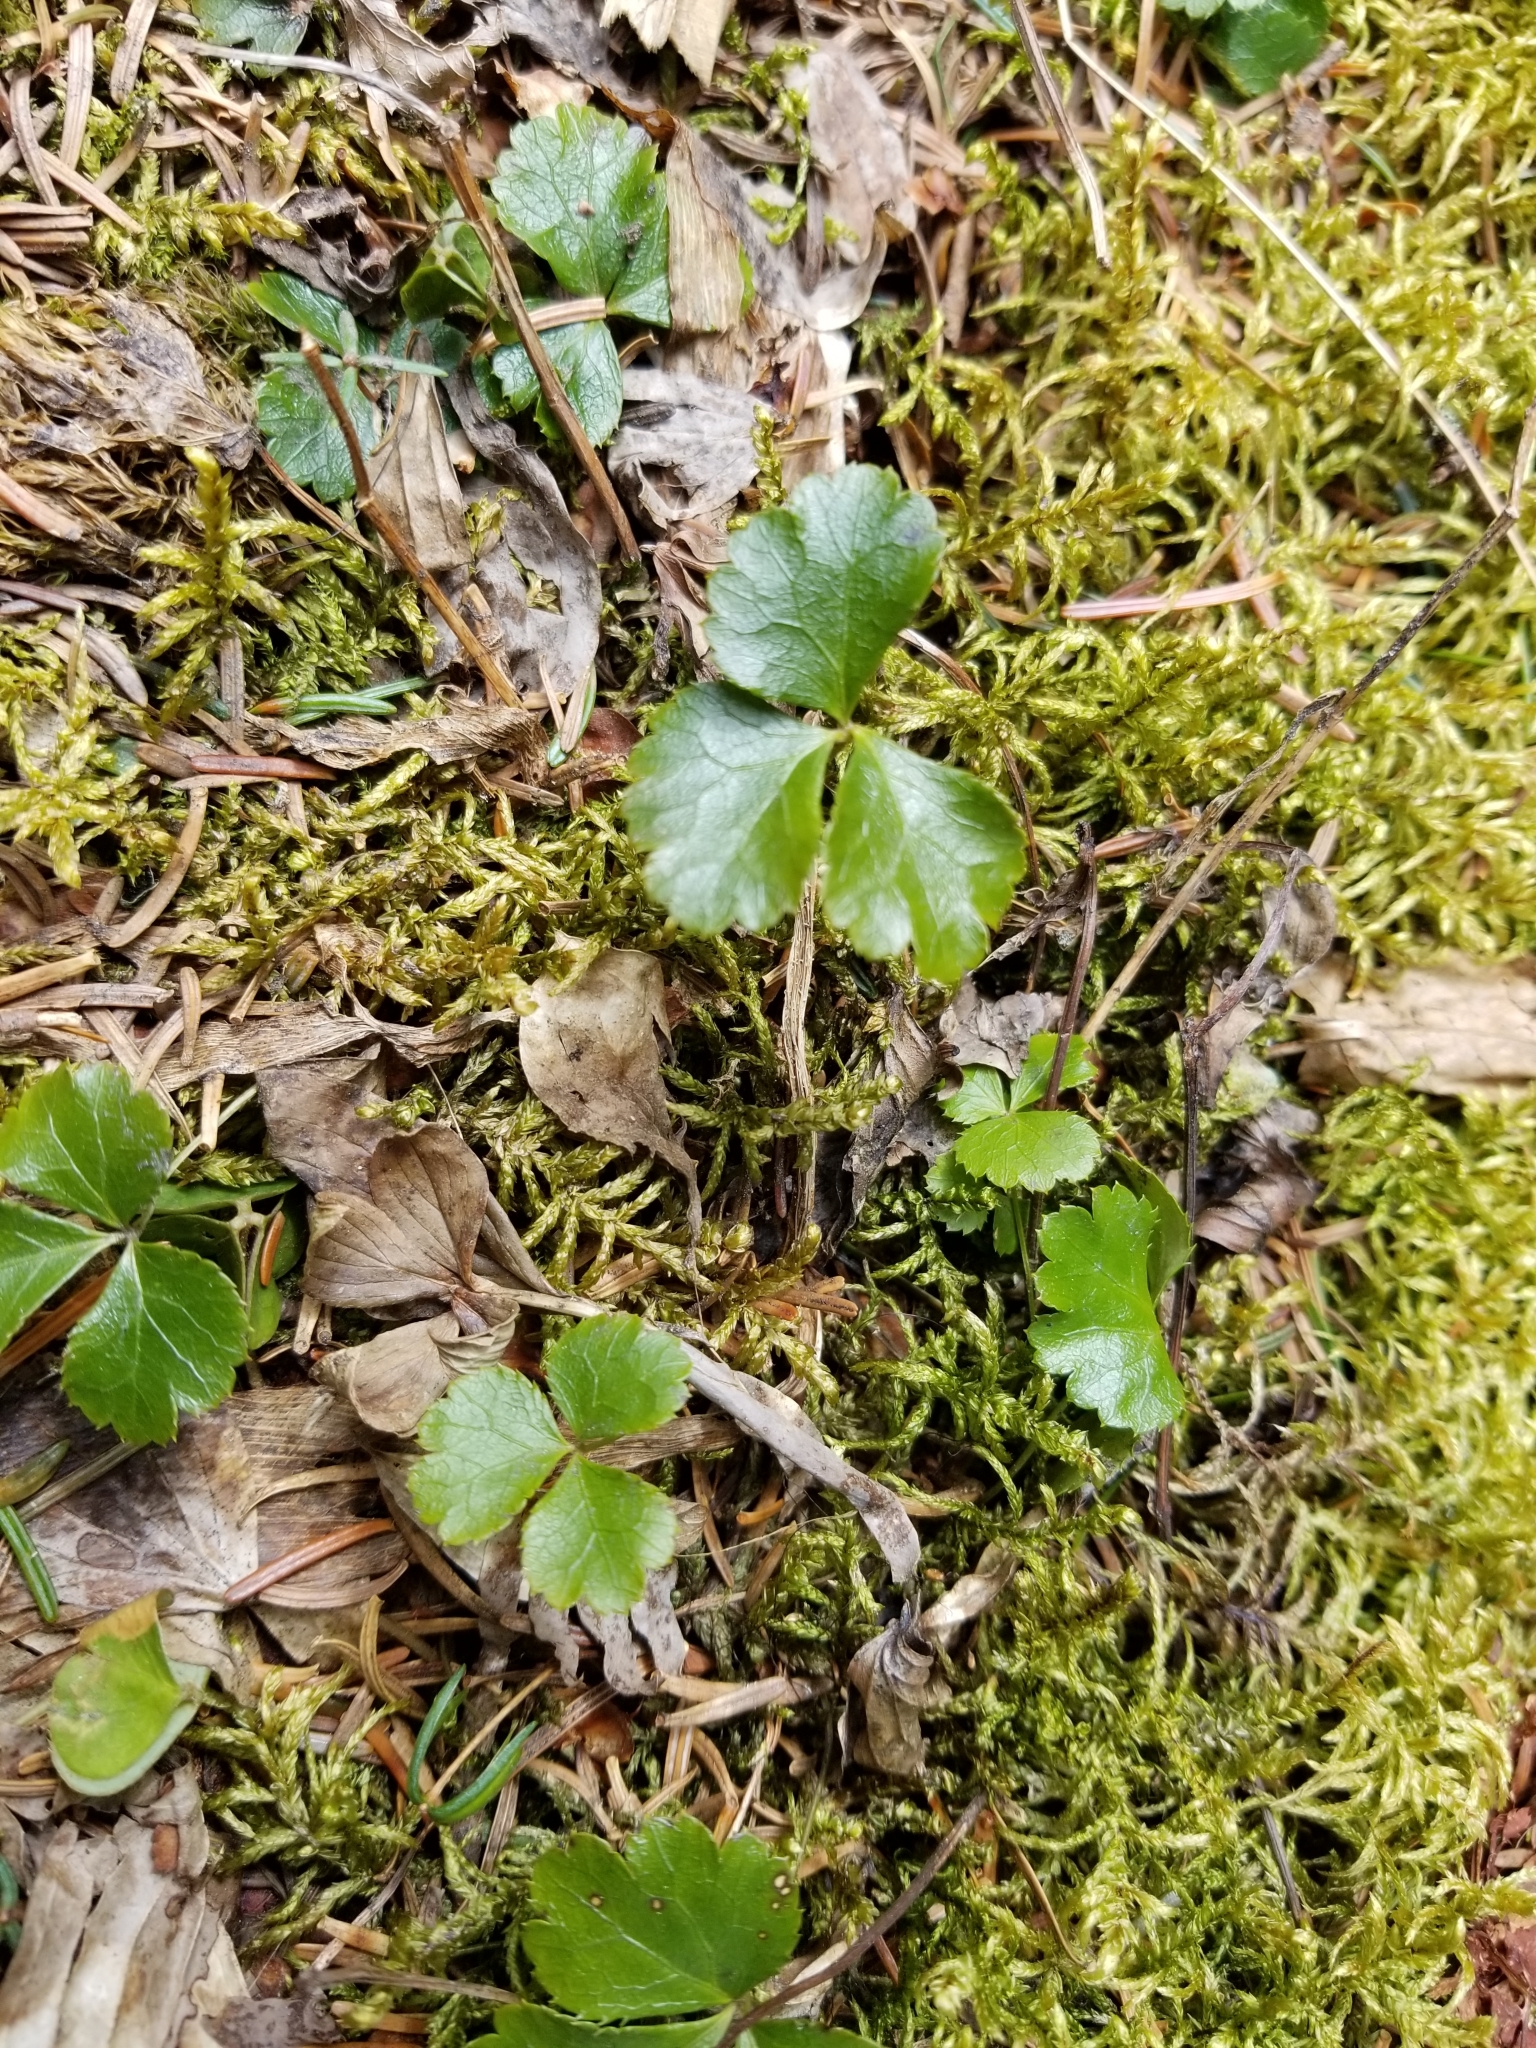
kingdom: Plantae
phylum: Tracheophyta
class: Magnoliopsida
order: Ranunculales
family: Ranunculaceae
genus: Coptis
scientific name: Coptis trifolia
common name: Canker-root
